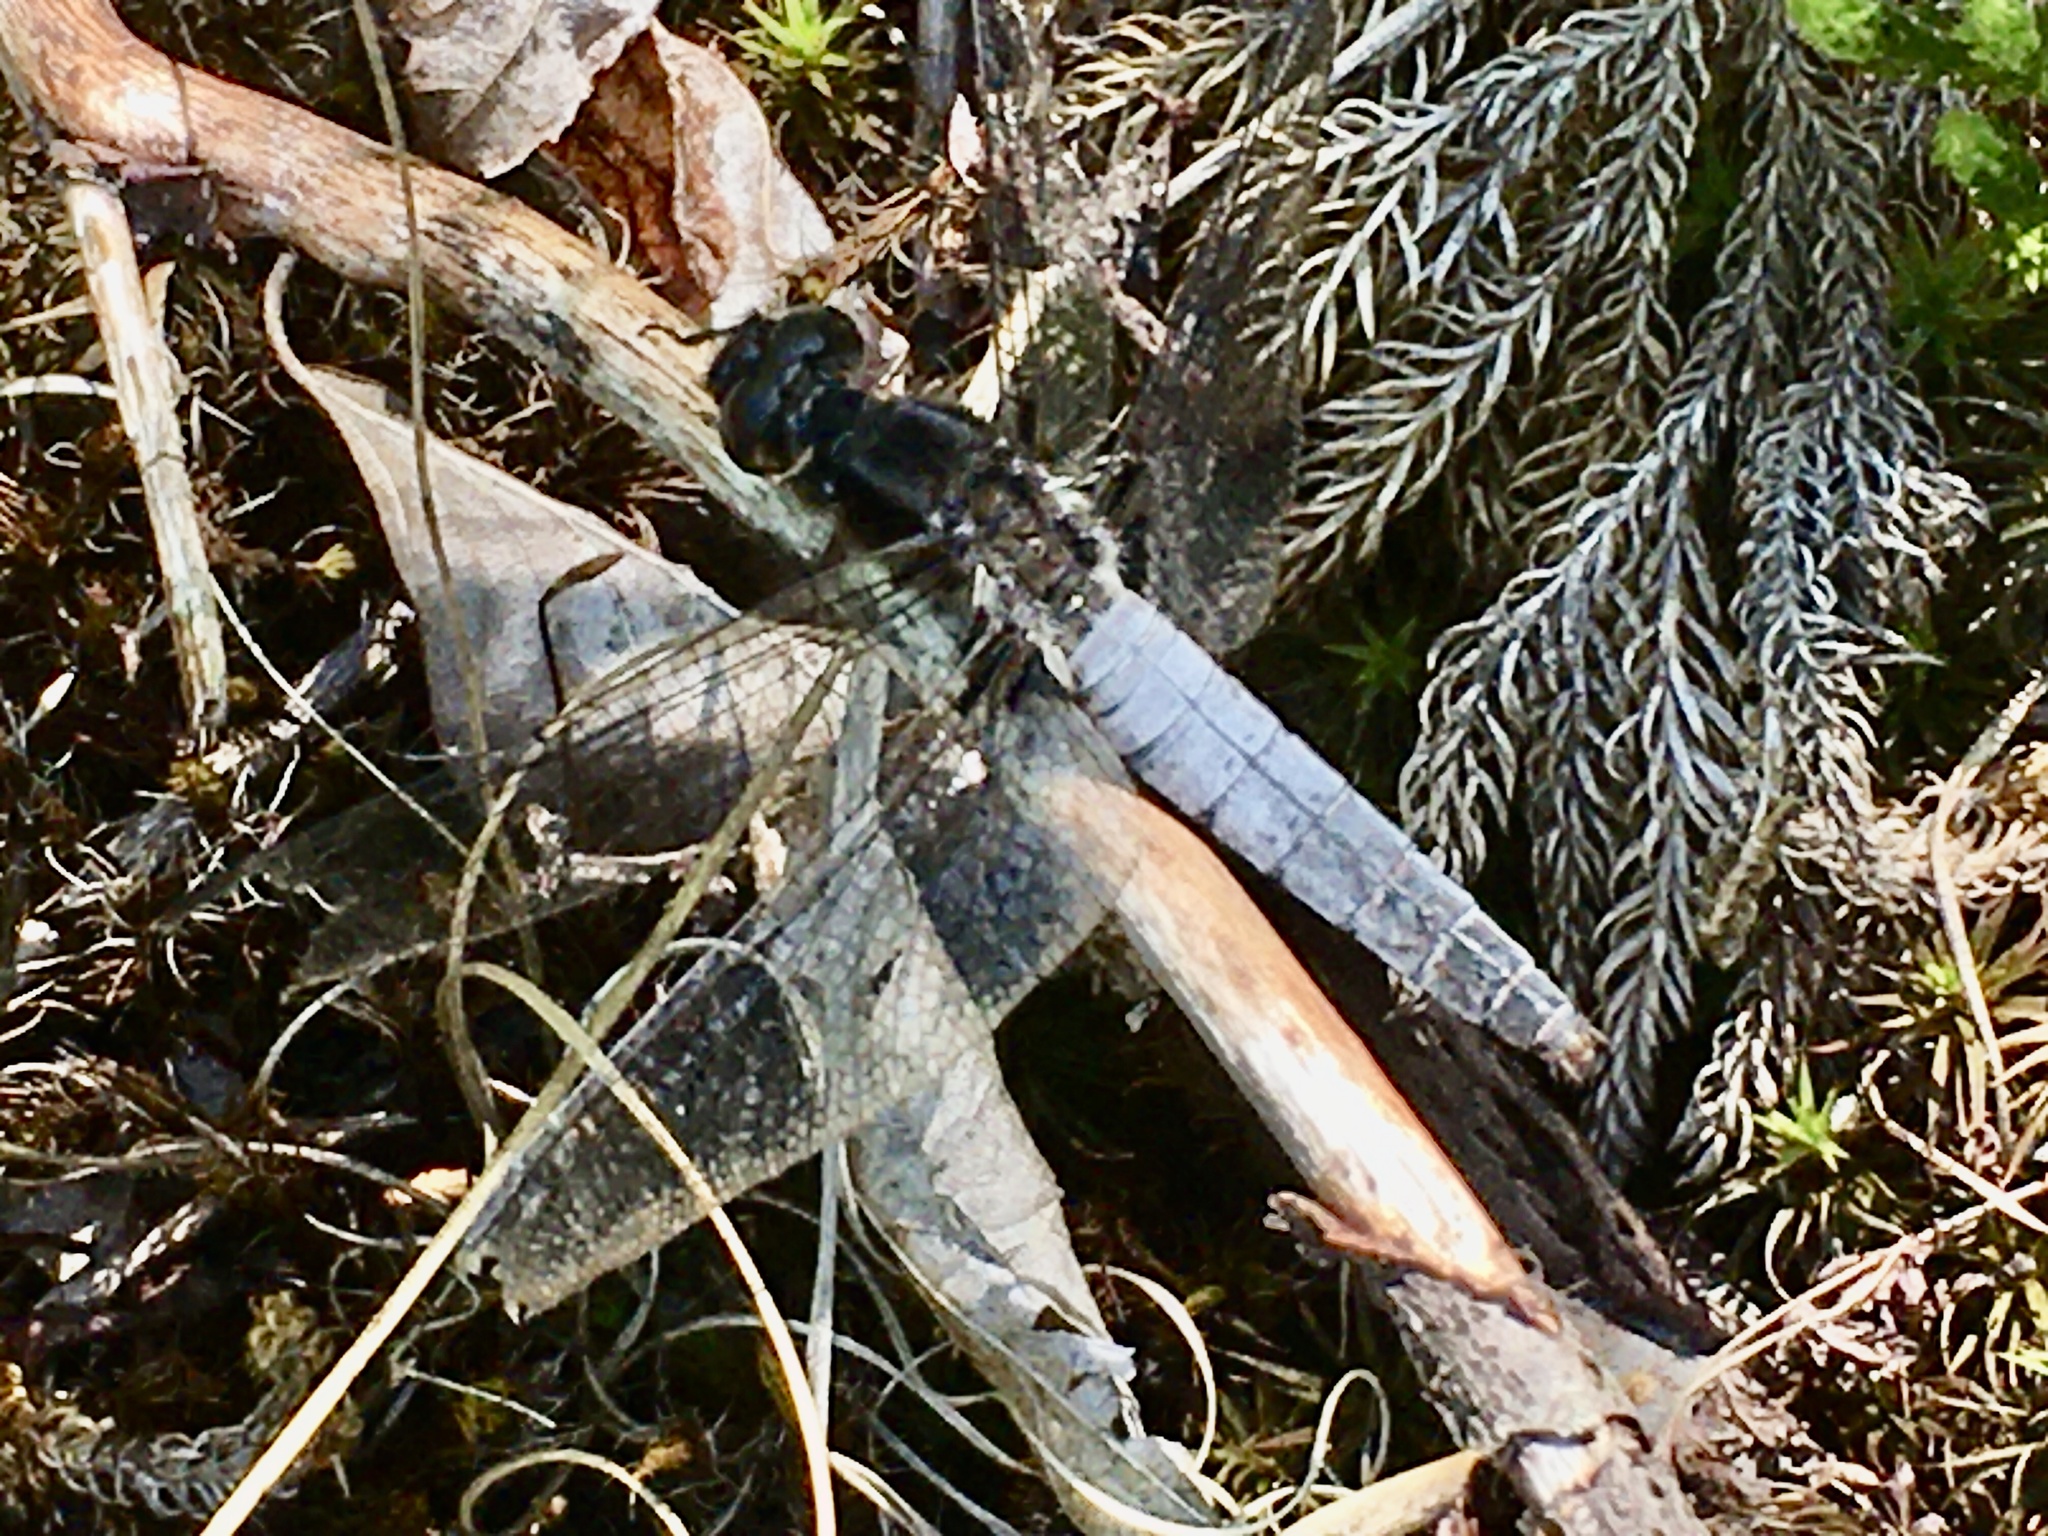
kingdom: Animalia
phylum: Arthropoda
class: Insecta
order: Odonata
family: Libellulidae
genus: Ladona
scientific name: Ladona exusta
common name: Libellule embrasée
